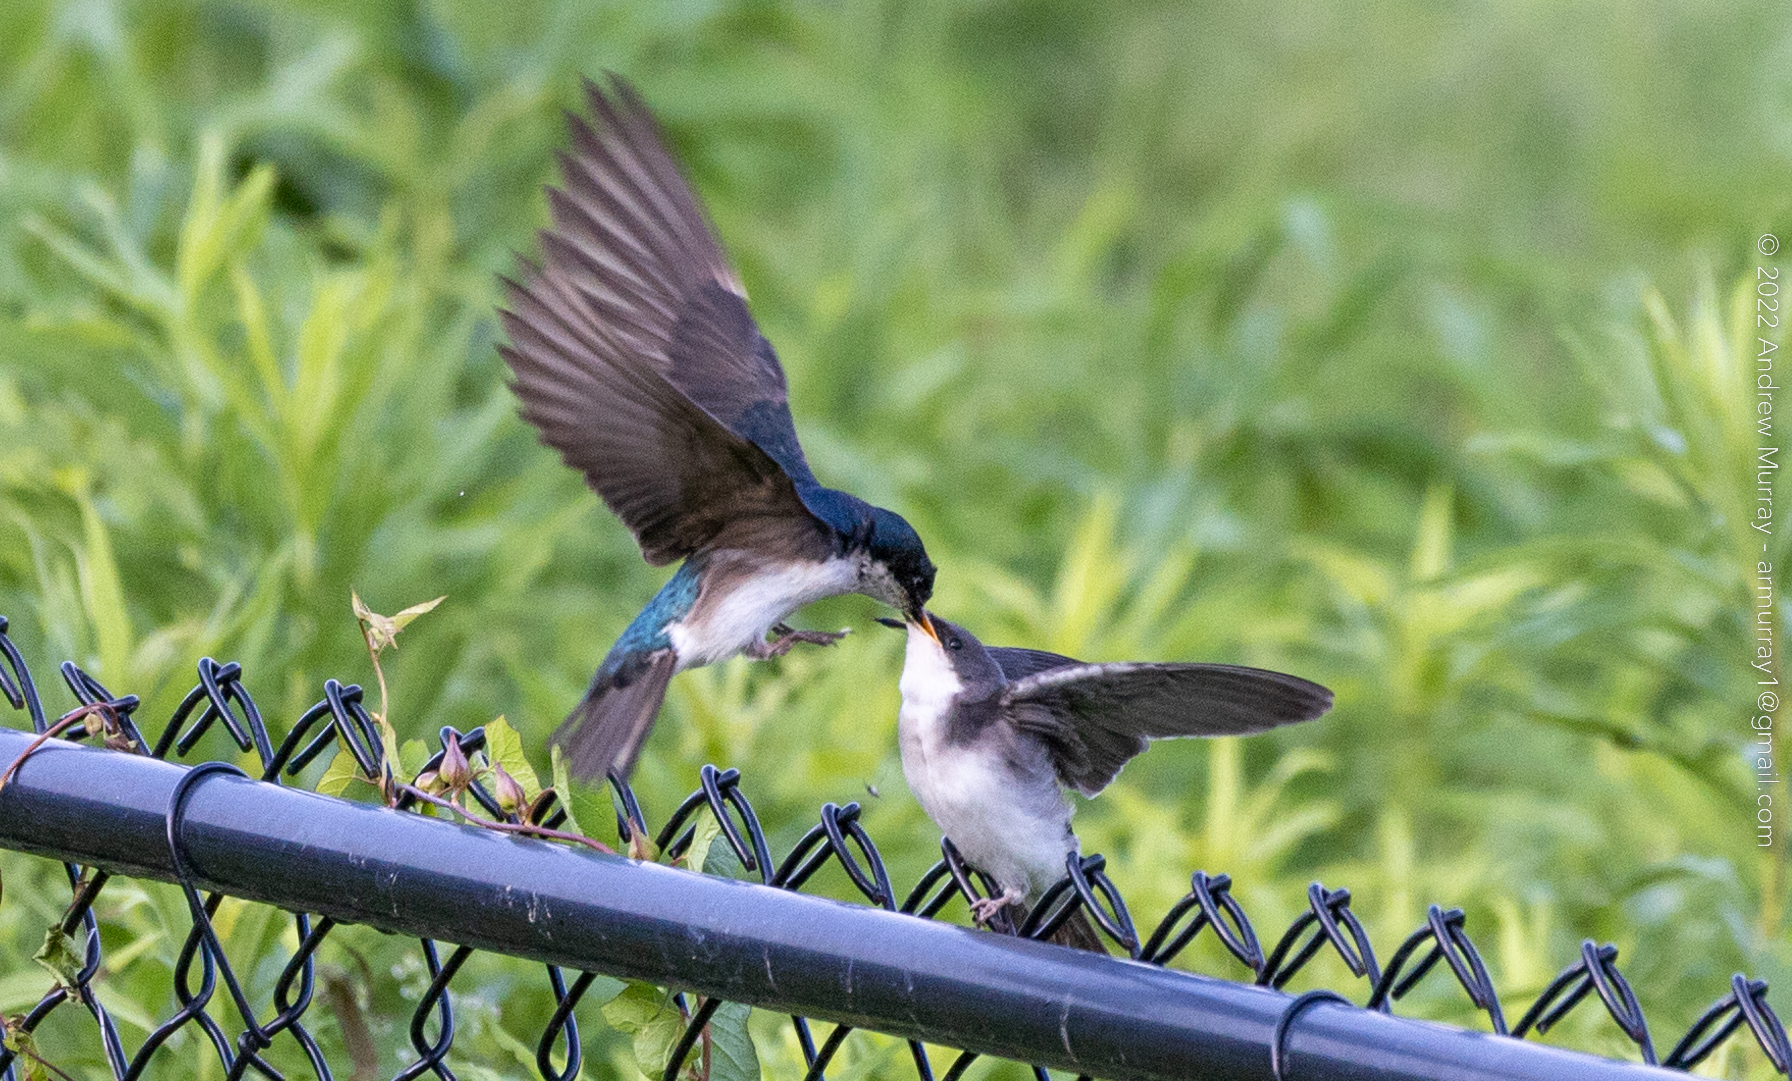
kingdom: Animalia
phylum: Chordata
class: Aves
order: Passeriformes
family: Hirundinidae
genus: Tachycineta
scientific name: Tachycineta bicolor
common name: Tree swallow
